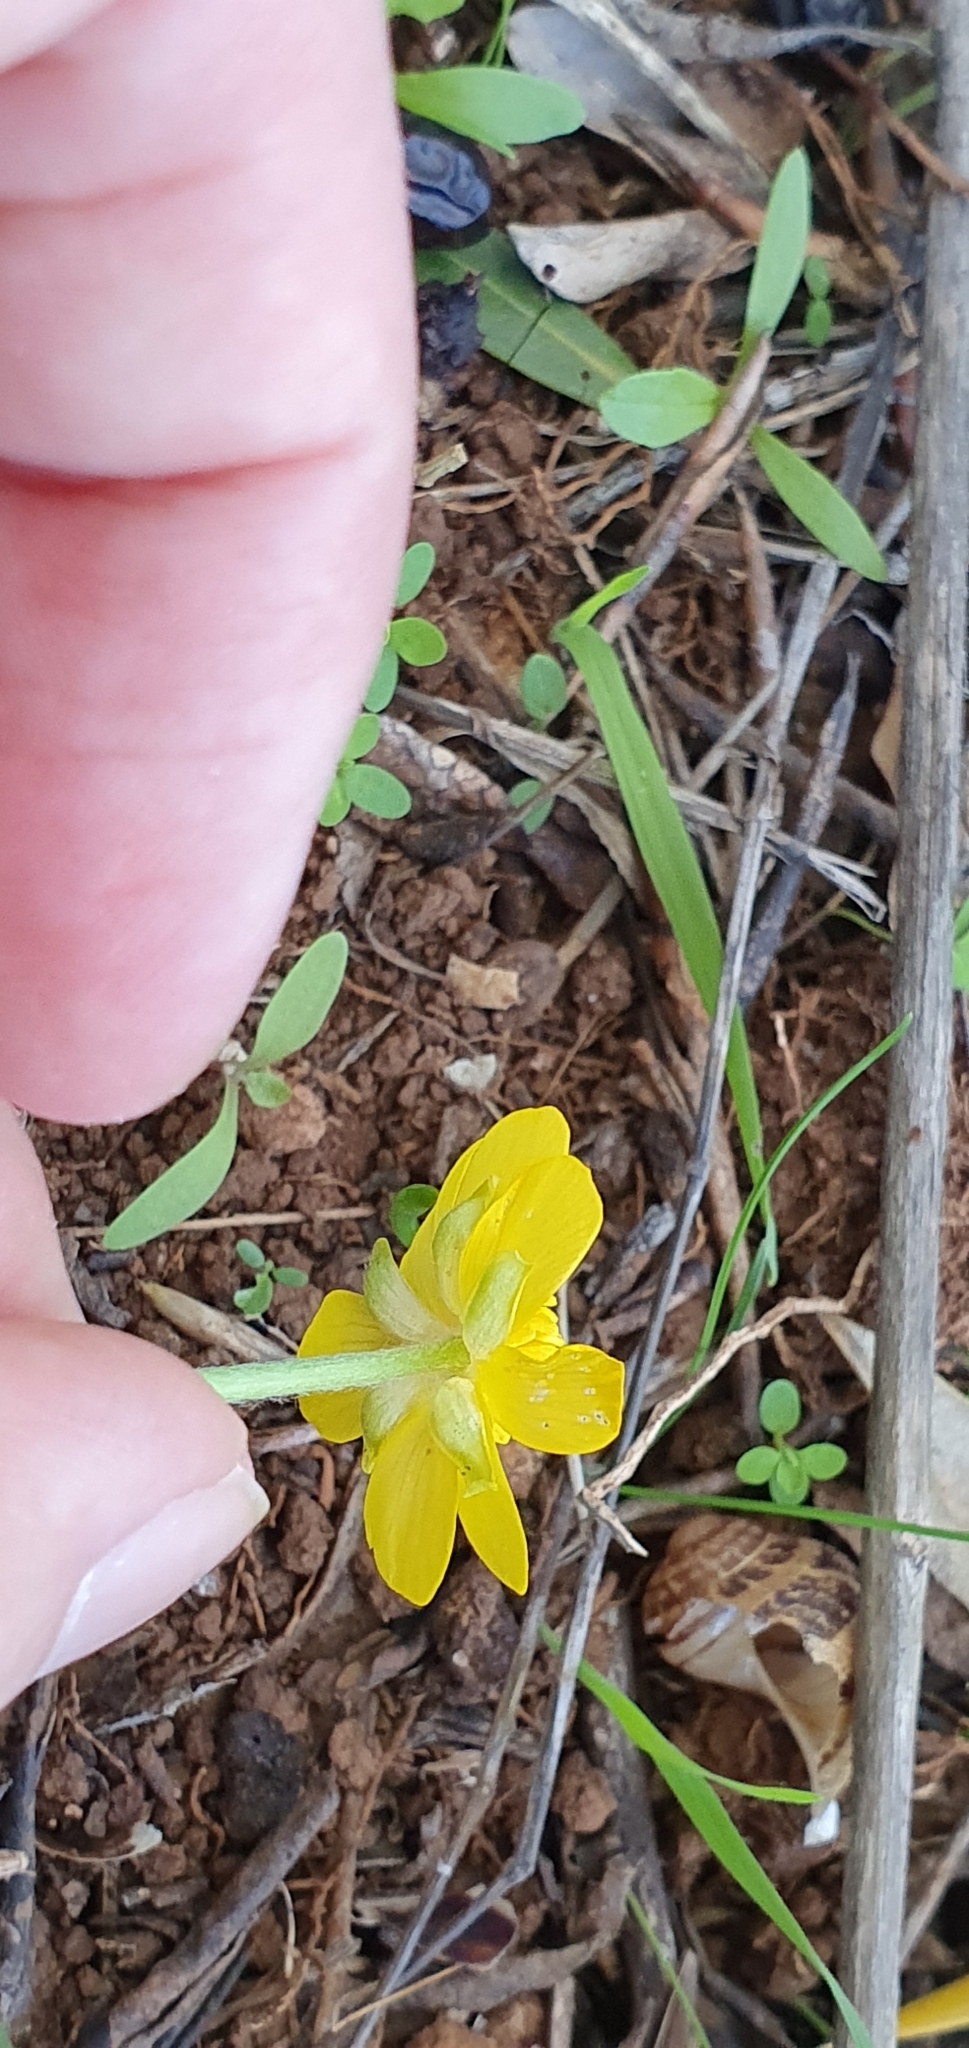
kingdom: Plantae
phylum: Tracheophyta
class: Magnoliopsida
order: Ranunculales
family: Ranunculaceae
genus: Ranunculus
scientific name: Ranunculus bullatus
